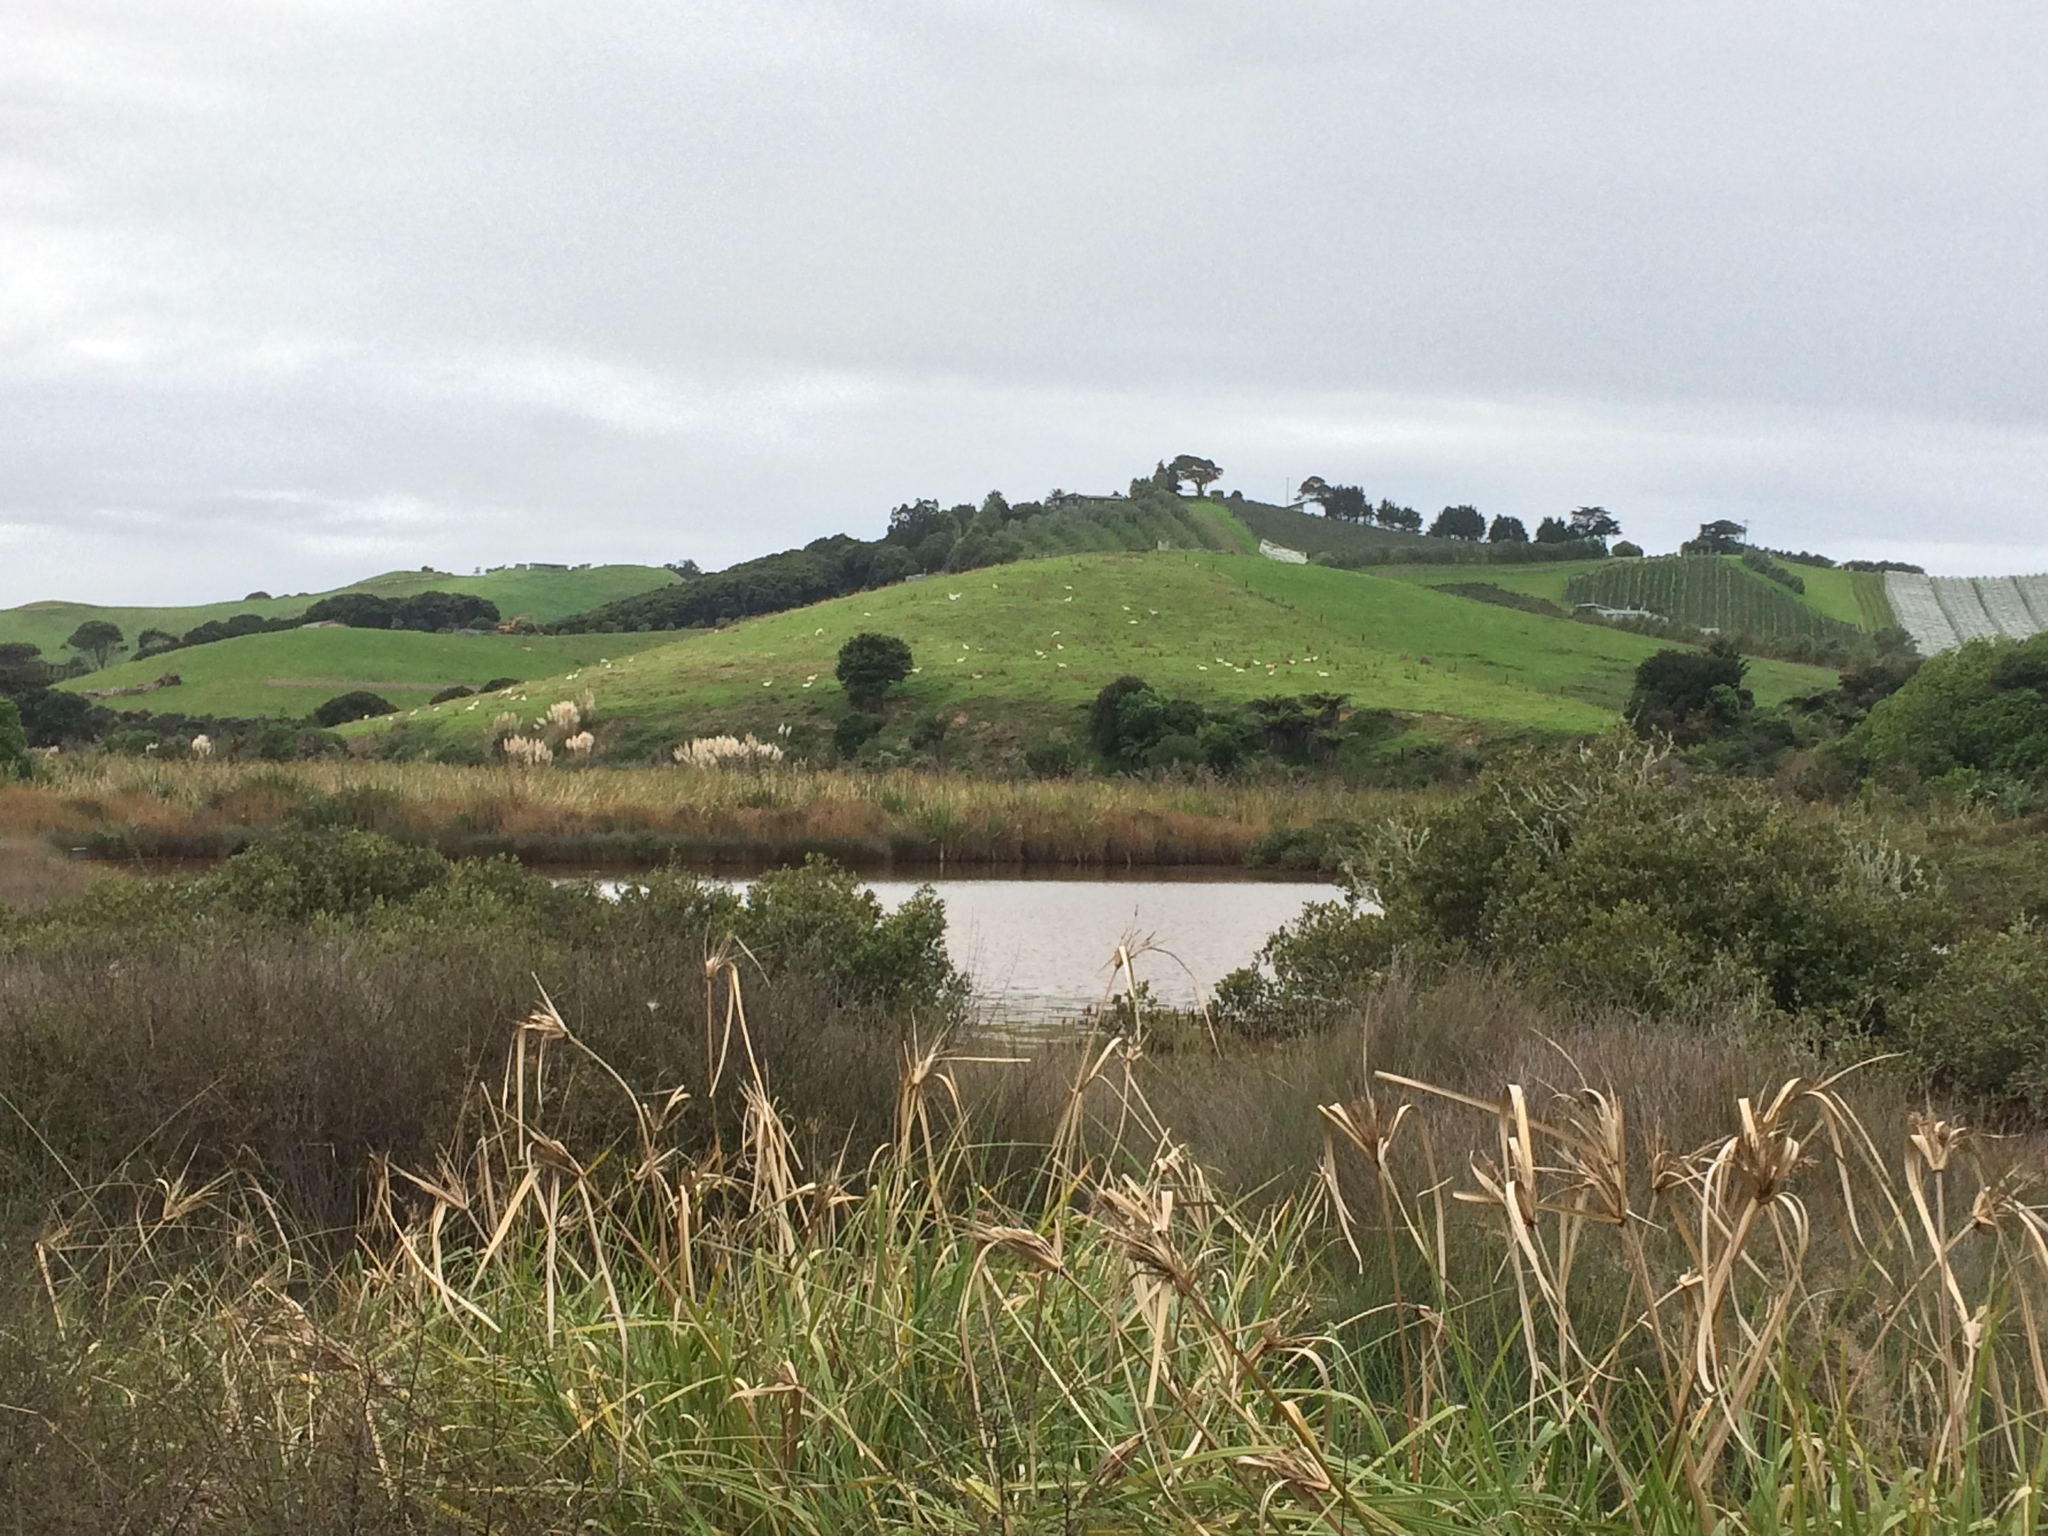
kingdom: Plantae
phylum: Tracheophyta
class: Liliopsida
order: Poales
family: Cyperaceae
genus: Cyperus
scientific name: Cyperus ustulatus
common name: Giant umbrella-sedge
